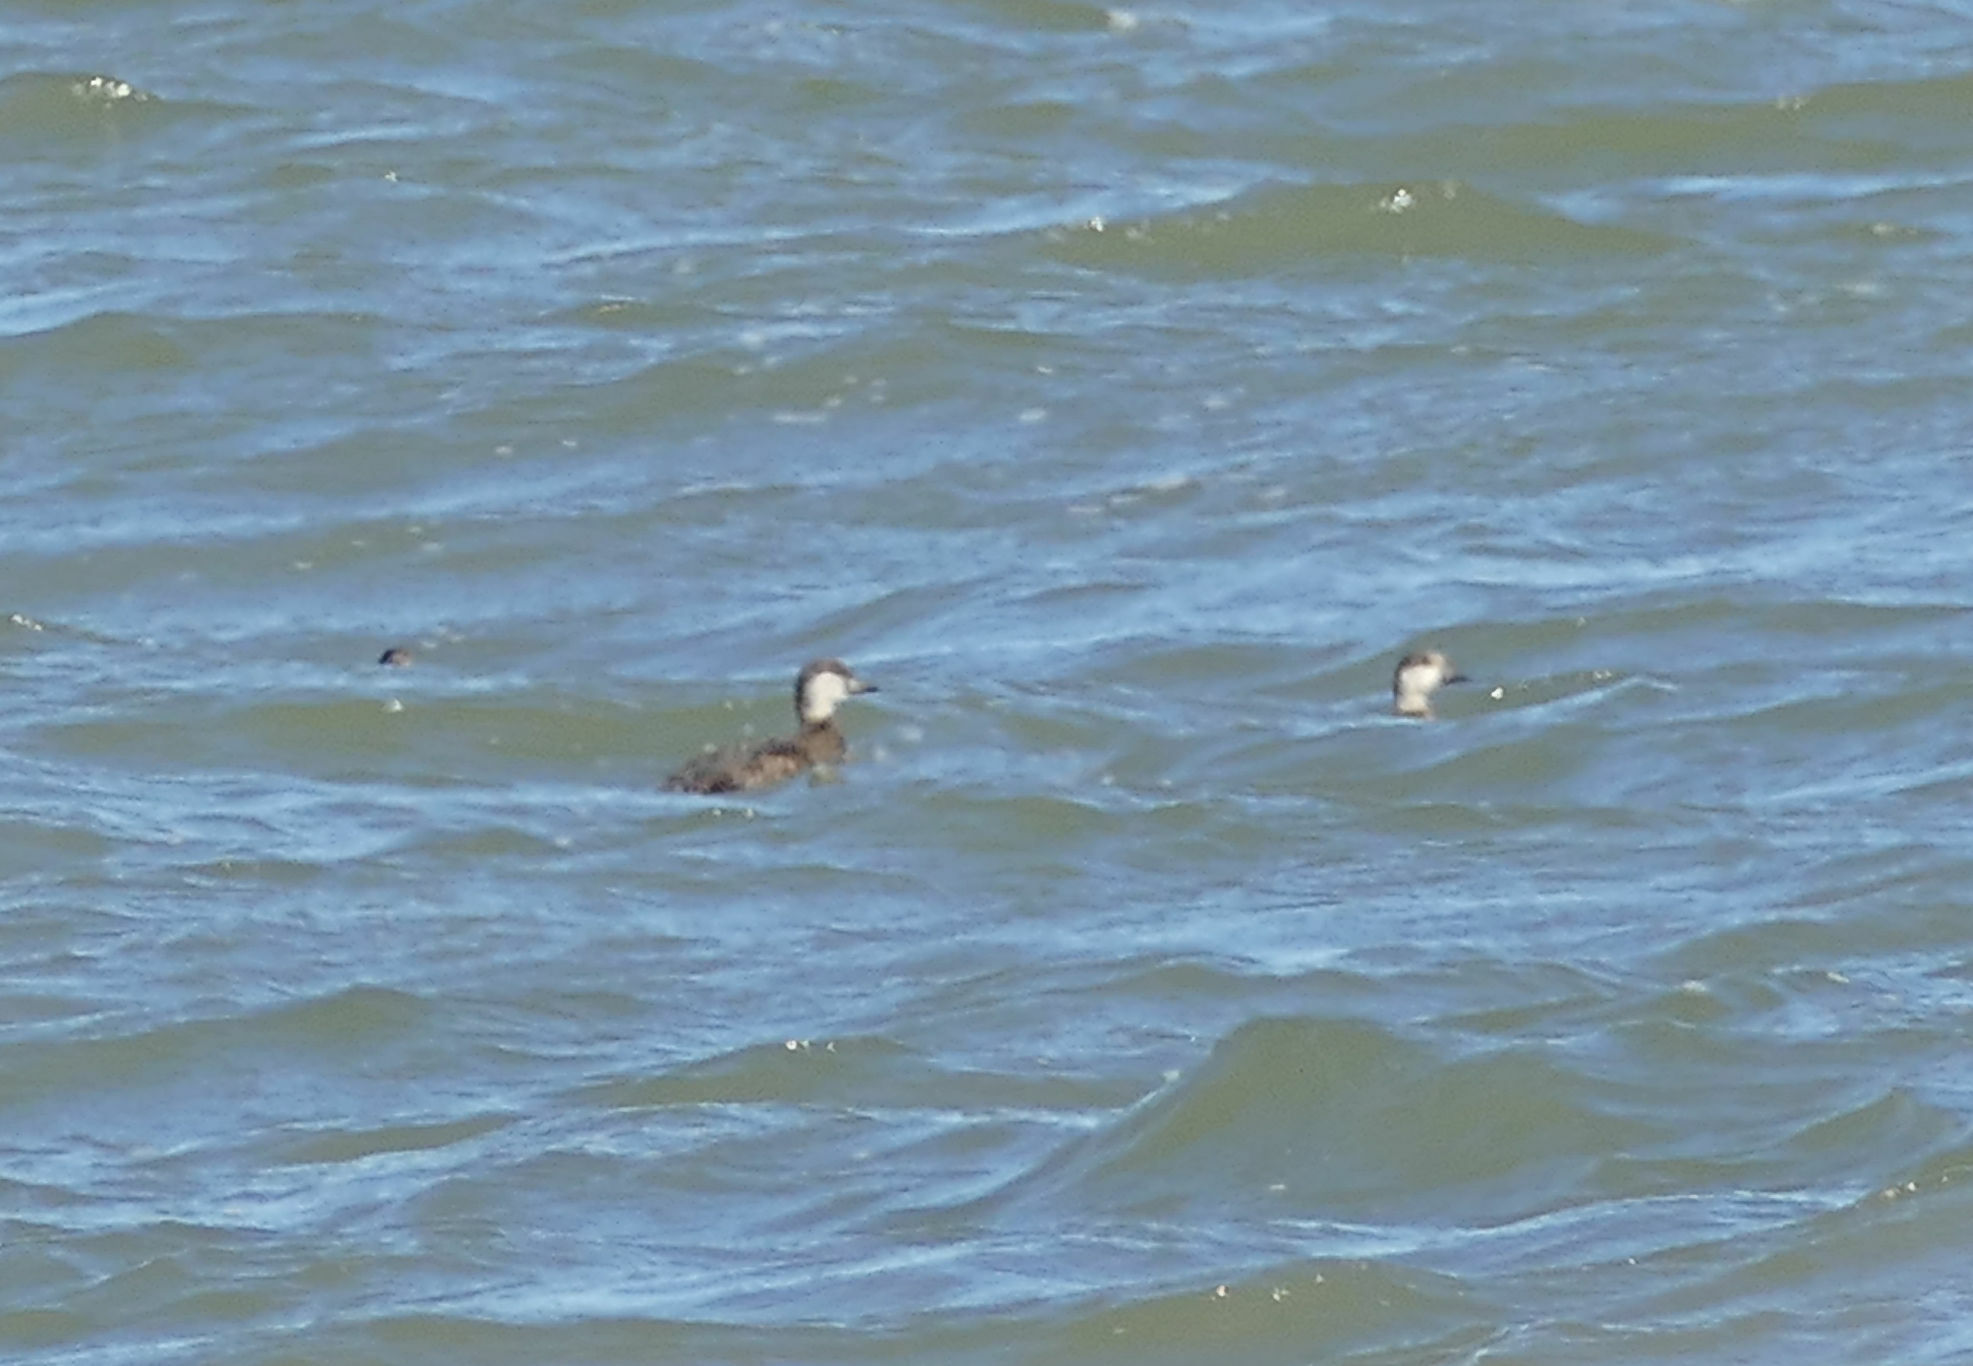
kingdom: Animalia
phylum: Chordata
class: Aves
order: Anseriformes
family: Anatidae
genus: Melanitta
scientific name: Melanitta americana
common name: Black scoter
